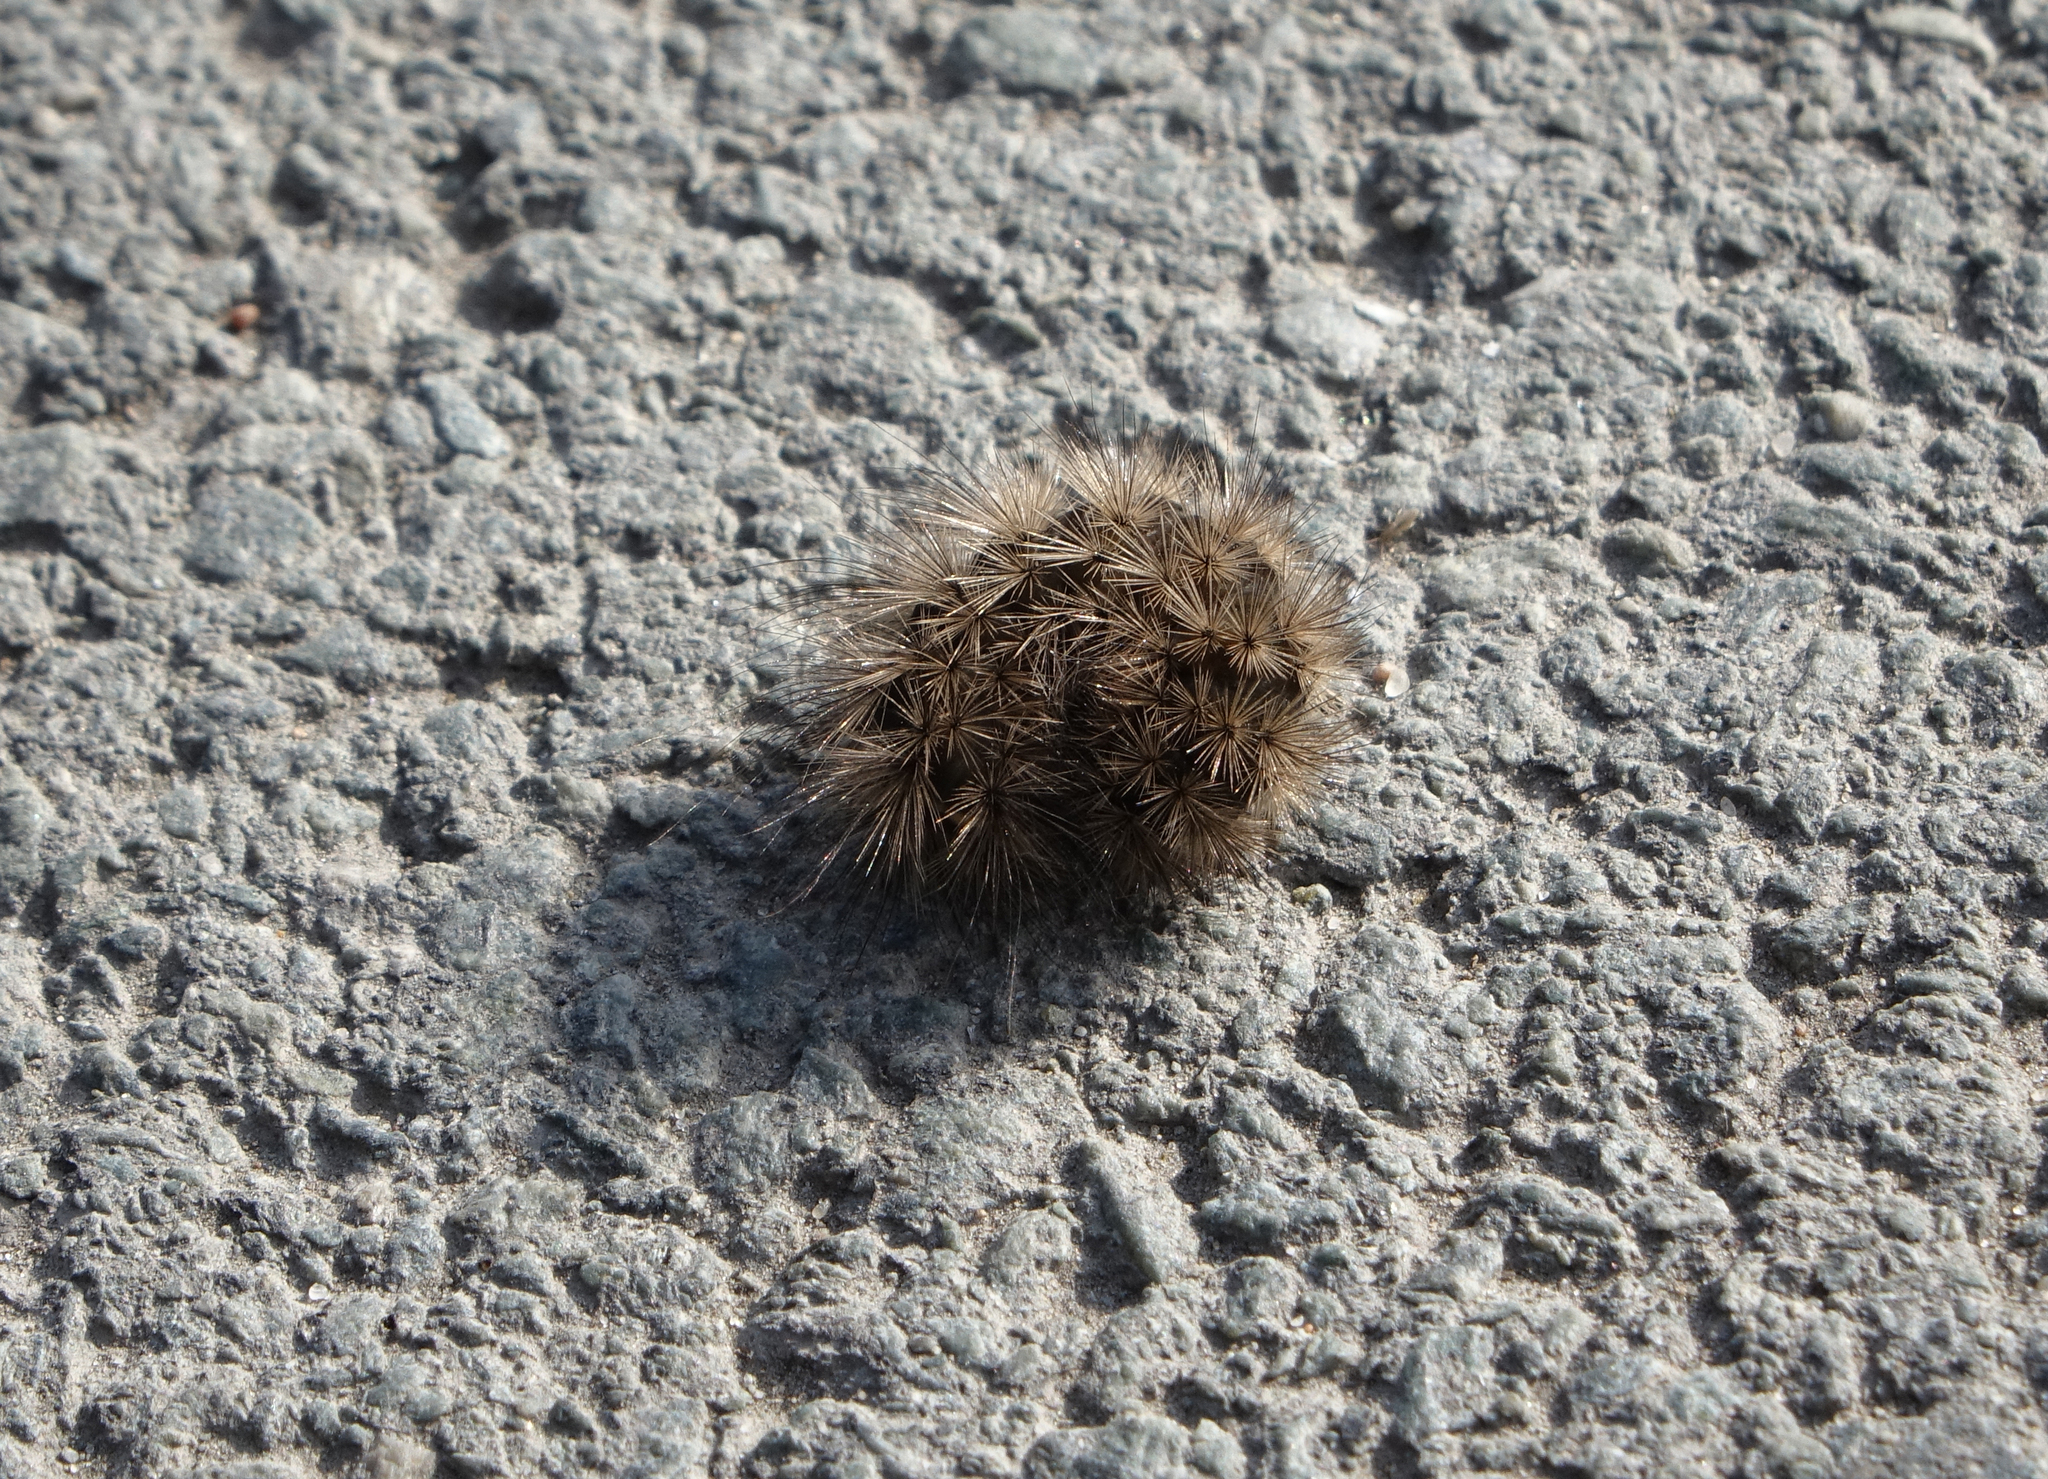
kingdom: Animalia
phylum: Arthropoda
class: Insecta
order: Lepidoptera
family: Erebidae
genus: Phragmatobia
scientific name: Phragmatobia fuliginosa
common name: Ruby tiger
